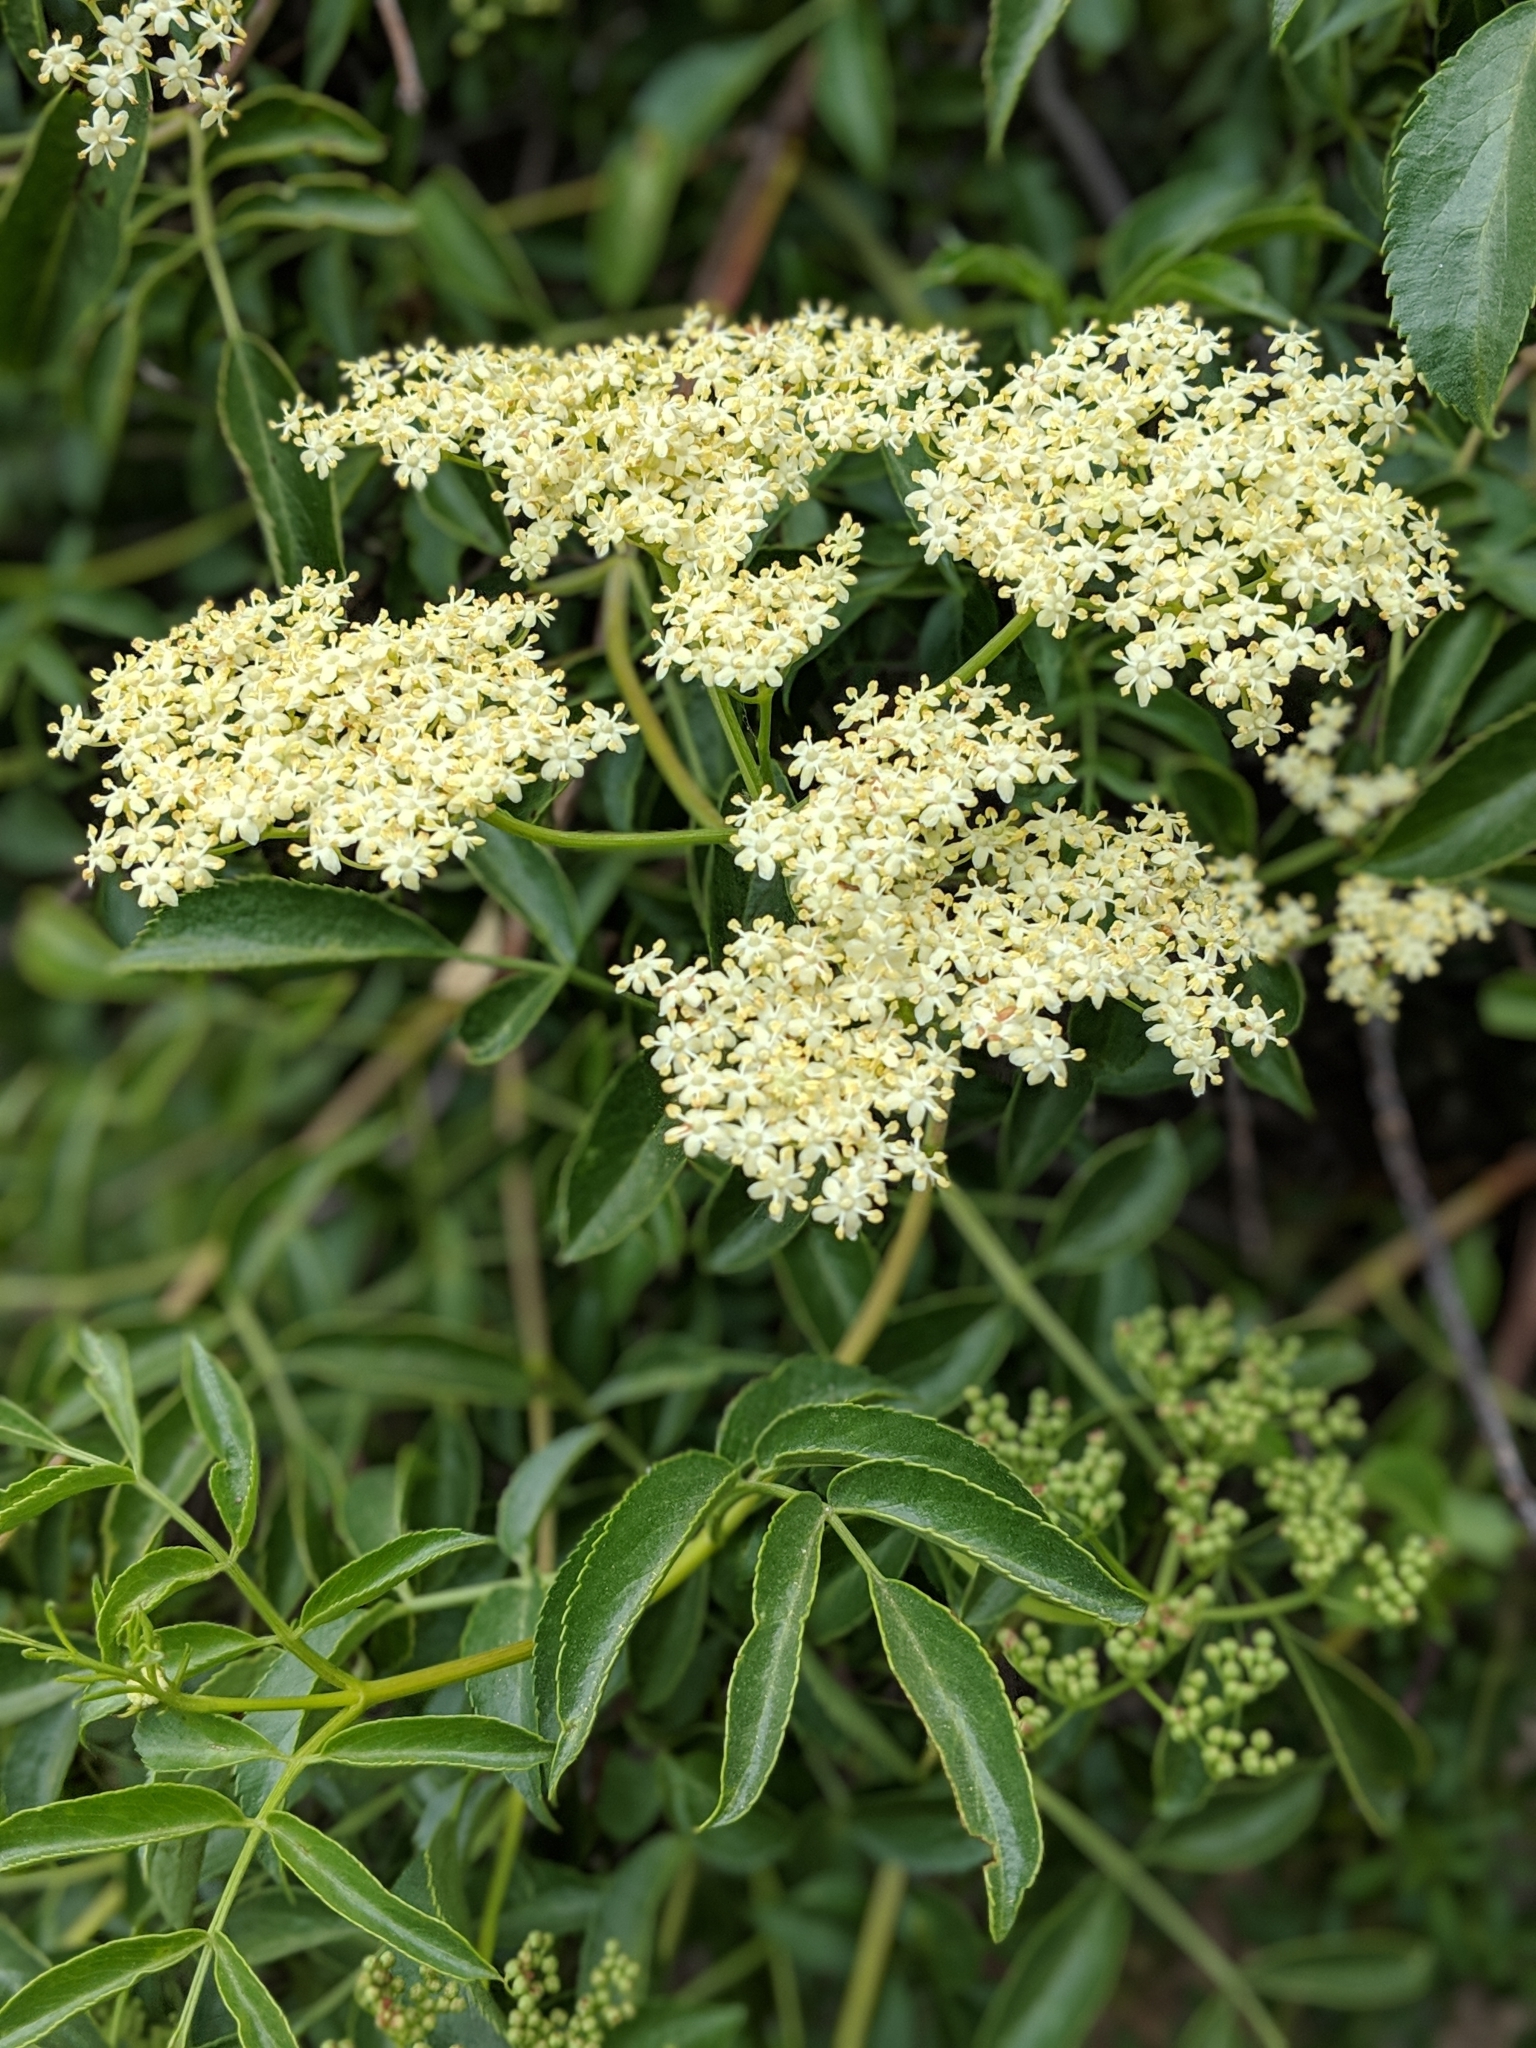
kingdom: Plantae
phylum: Tracheophyta
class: Magnoliopsida
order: Dipsacales
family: Viburnaceae
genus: Sambucus
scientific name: Sambucus cerulea
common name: Blue elder
